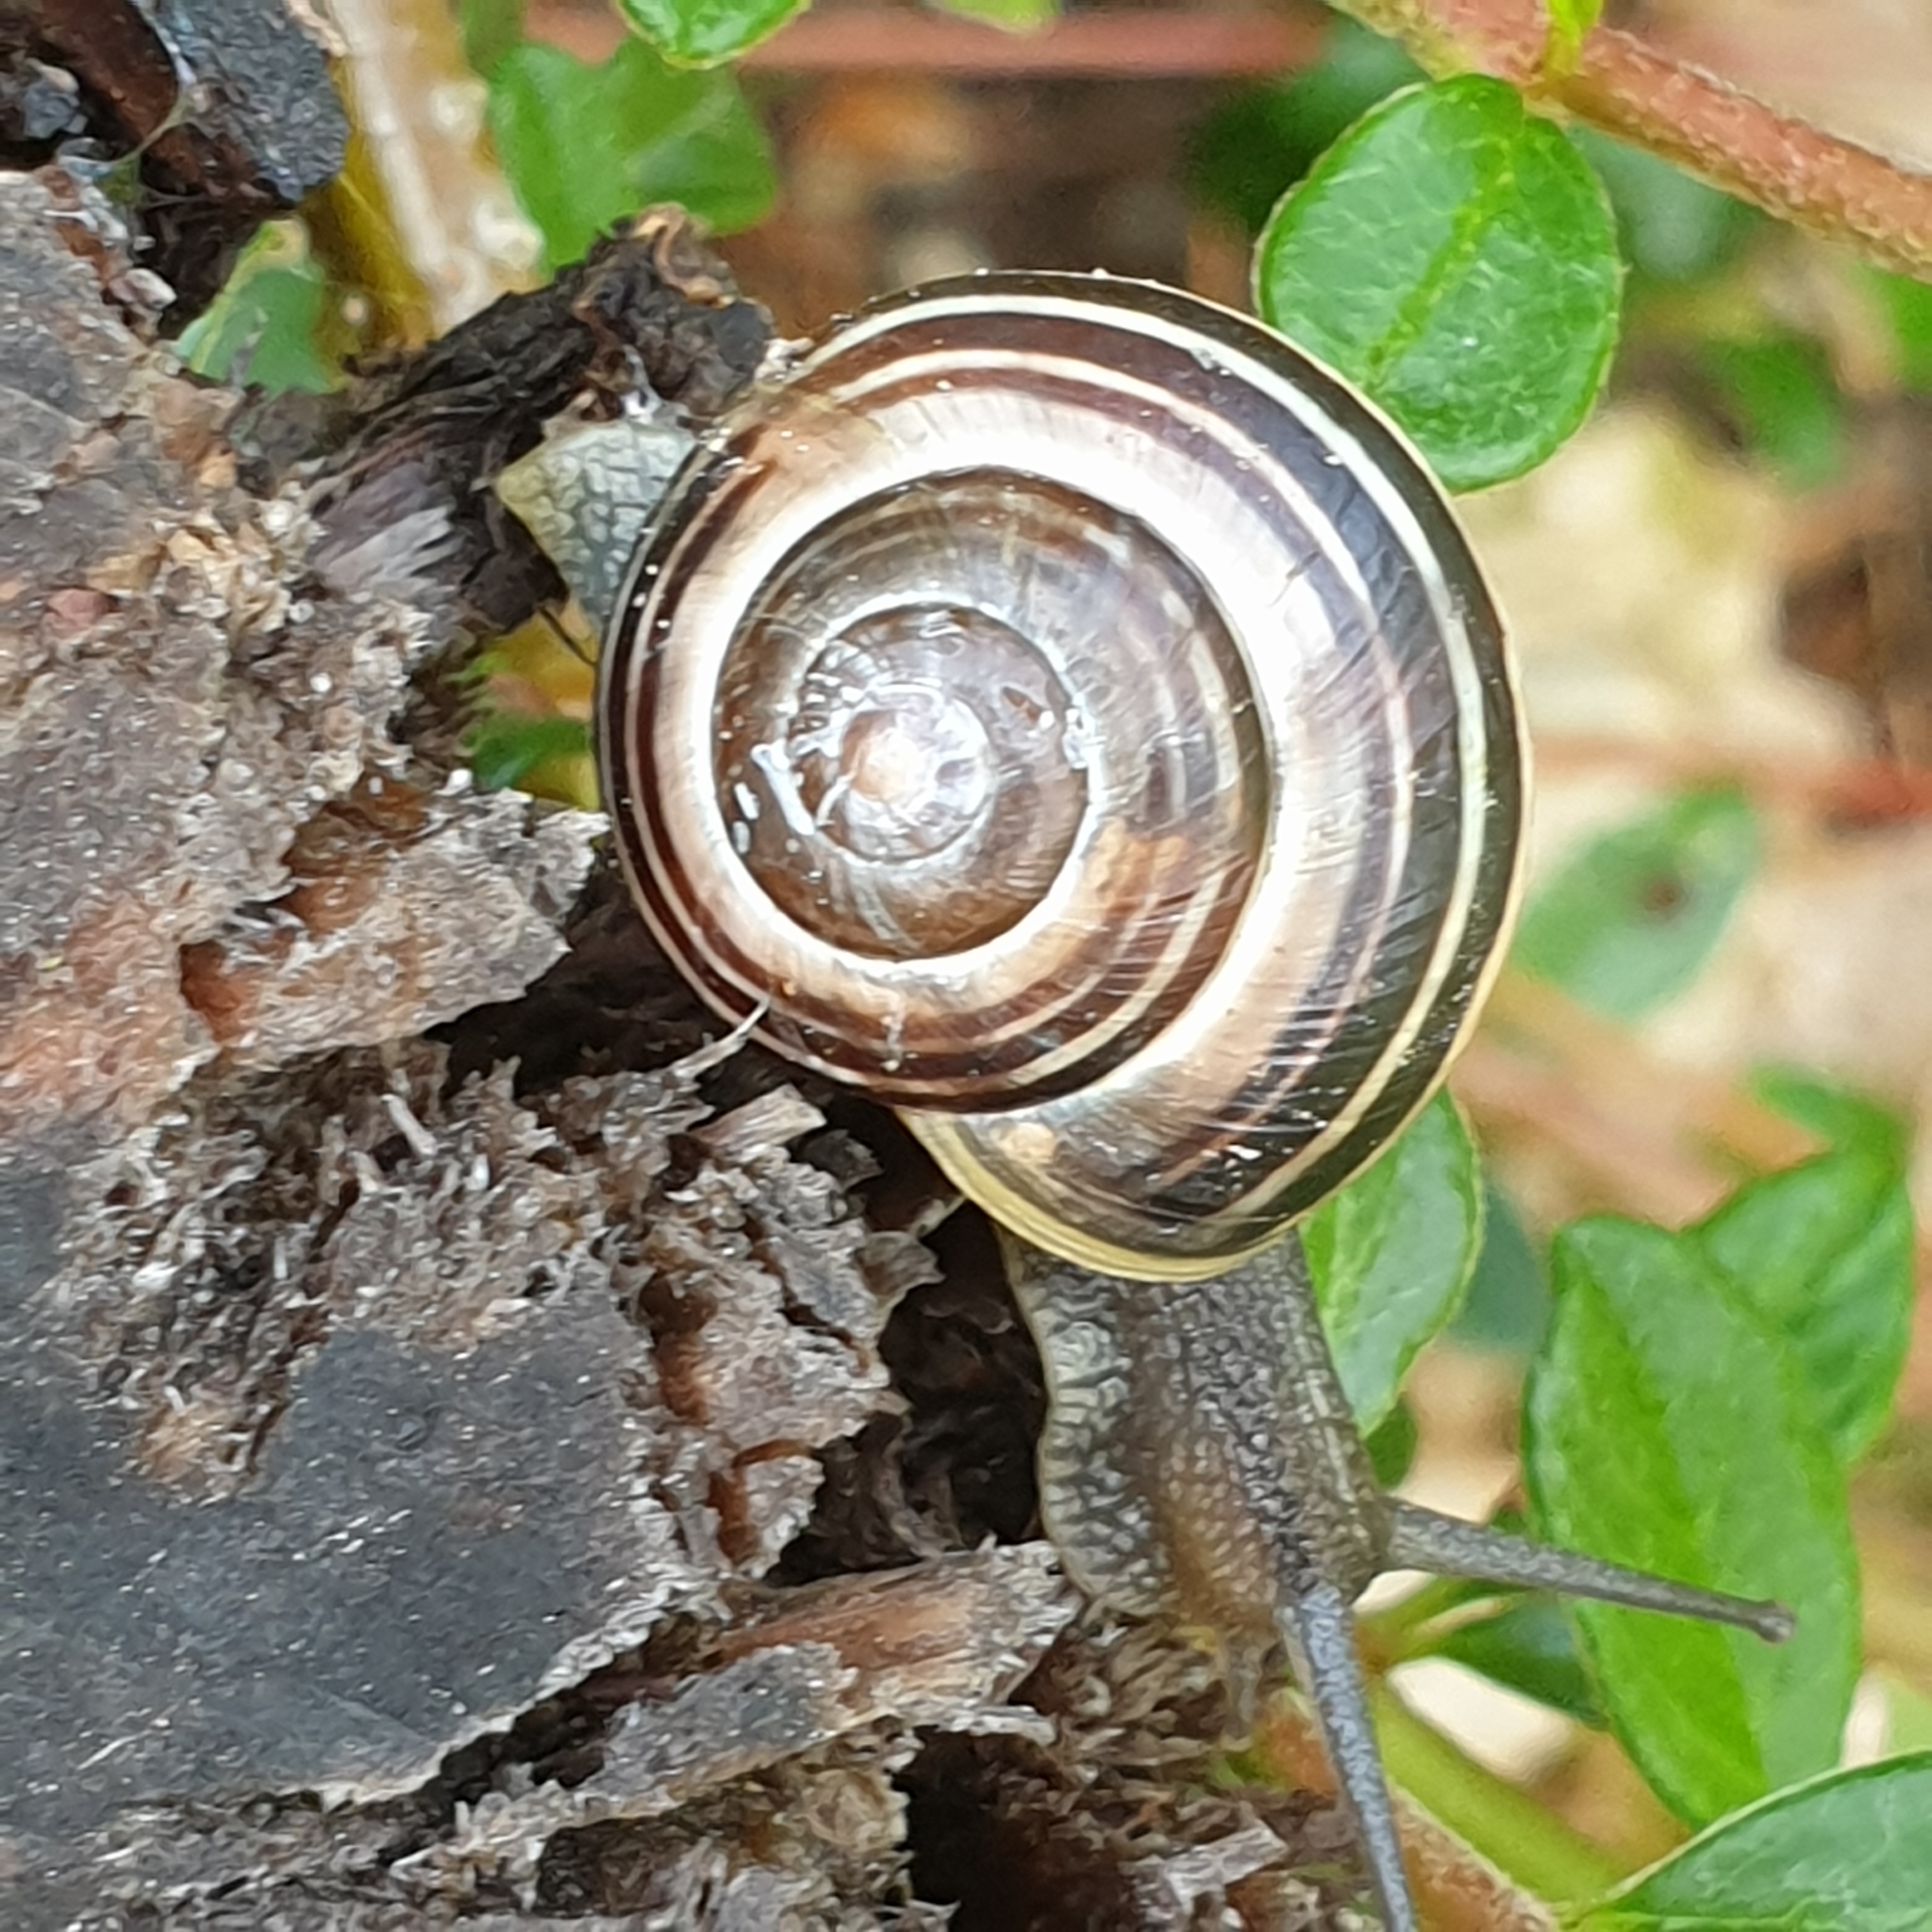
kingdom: Animalia
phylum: Mollusca
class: Gastropoda
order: Stylommatophora
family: Helicidae
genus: Cepaea
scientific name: Cepaea
